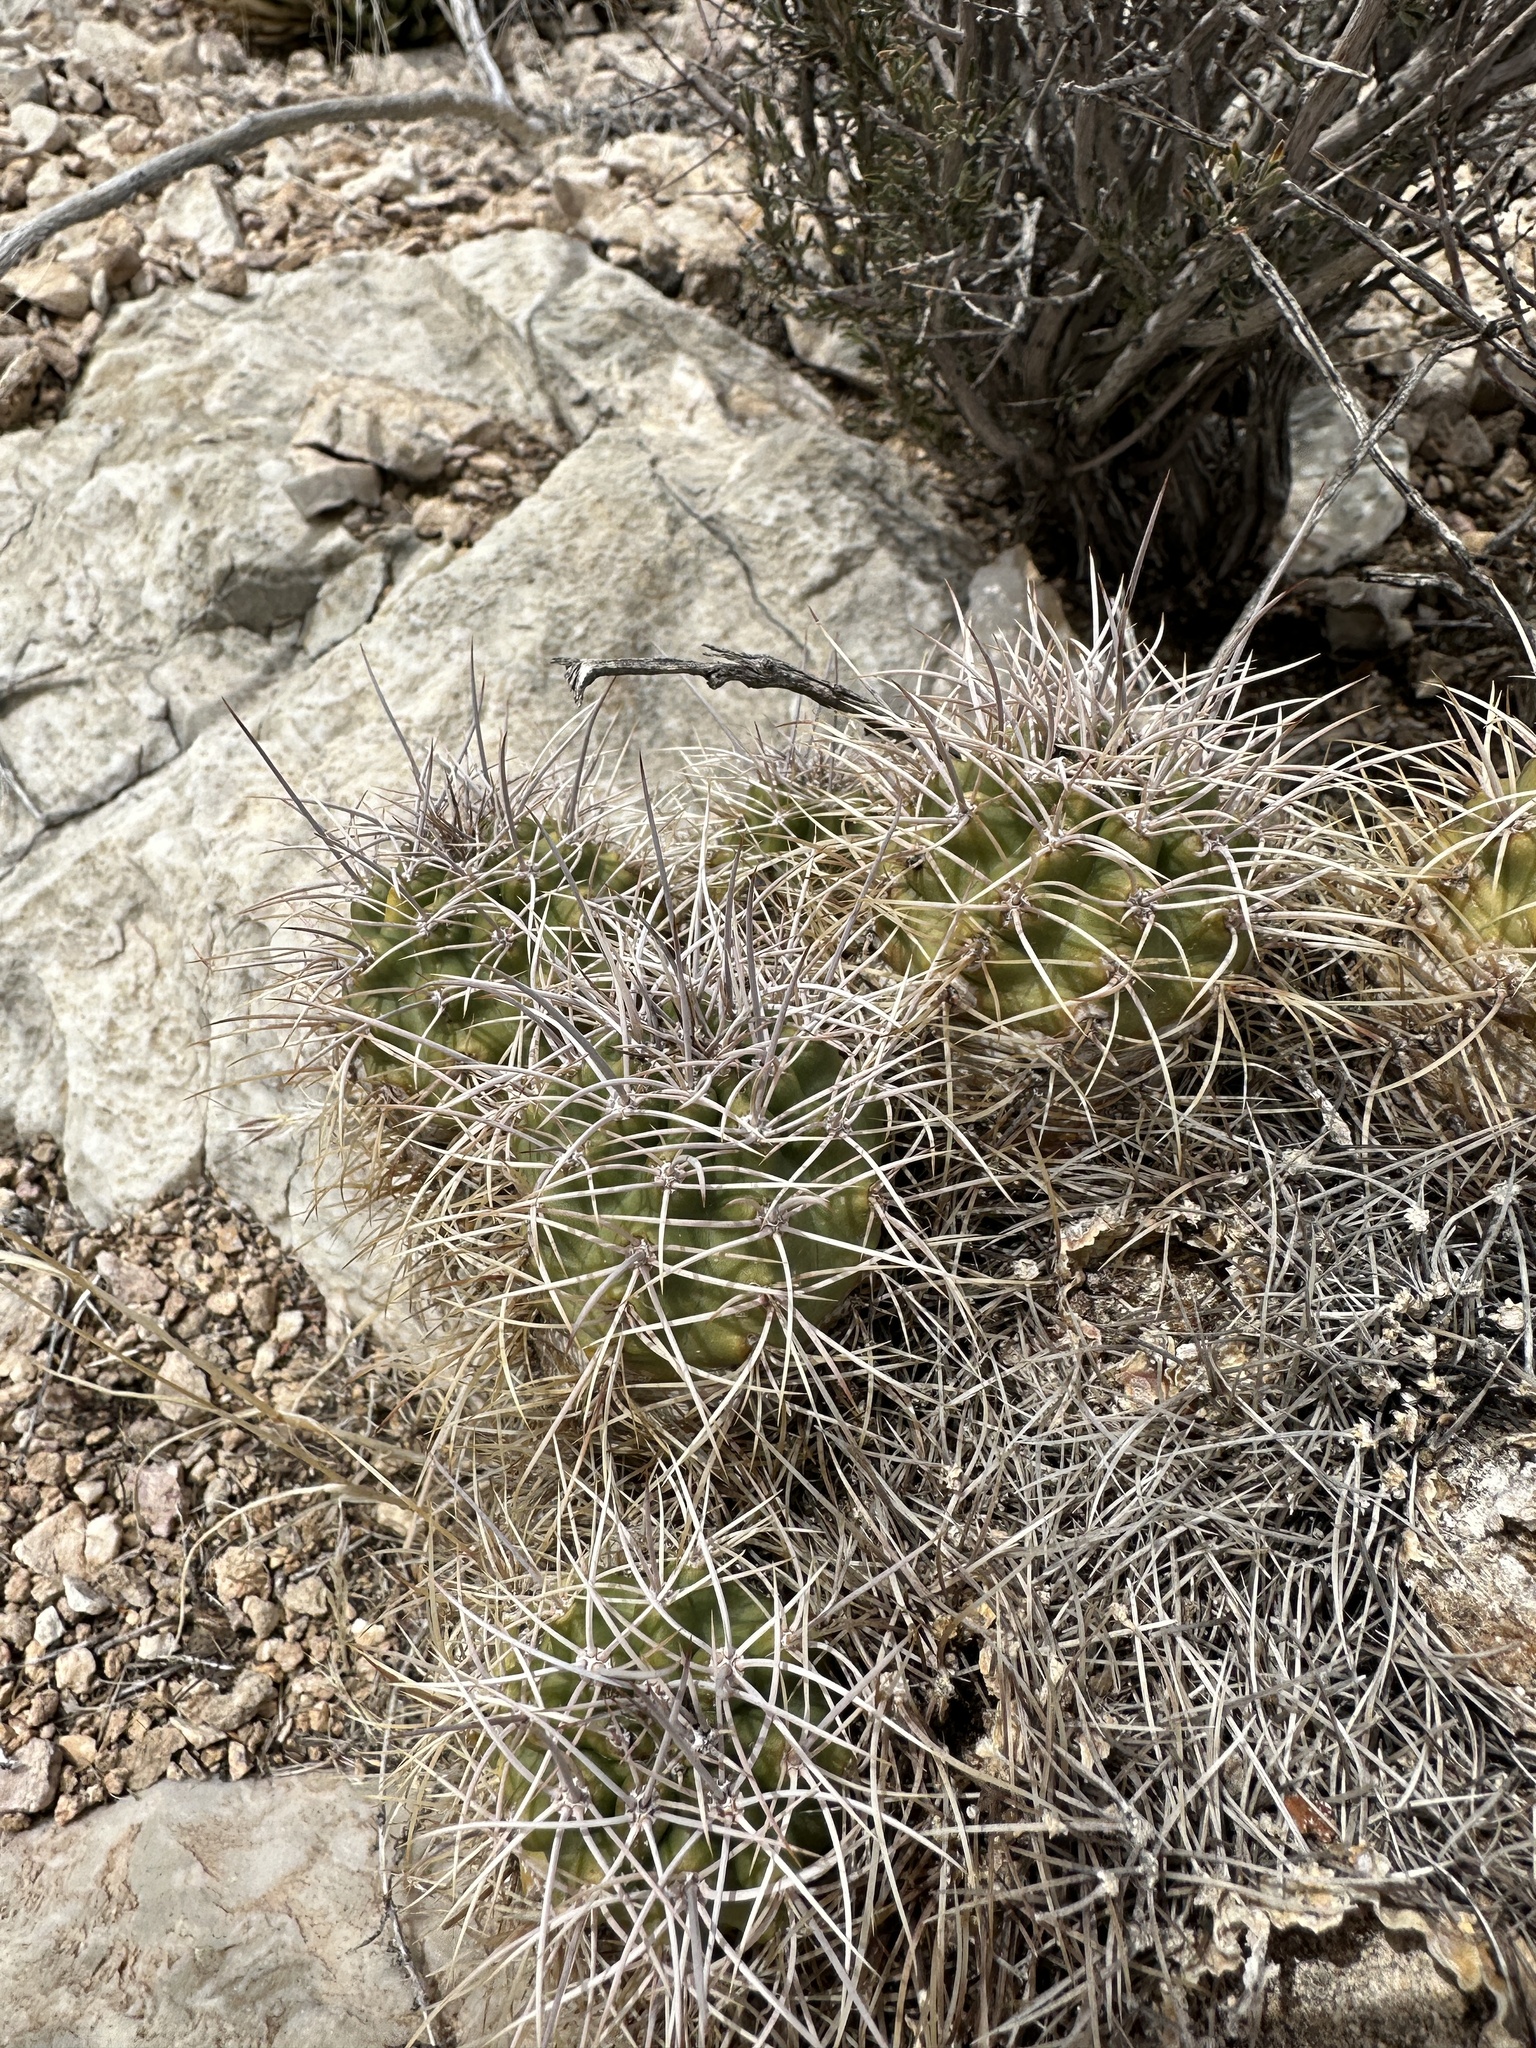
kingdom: Plantae
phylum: Tracheophyta
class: Magnoliopsida
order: Caryophyllales
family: Cactaceae
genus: Echinocereus
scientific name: Echinocereus triglochidiatus
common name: Claretcup hedgehog
